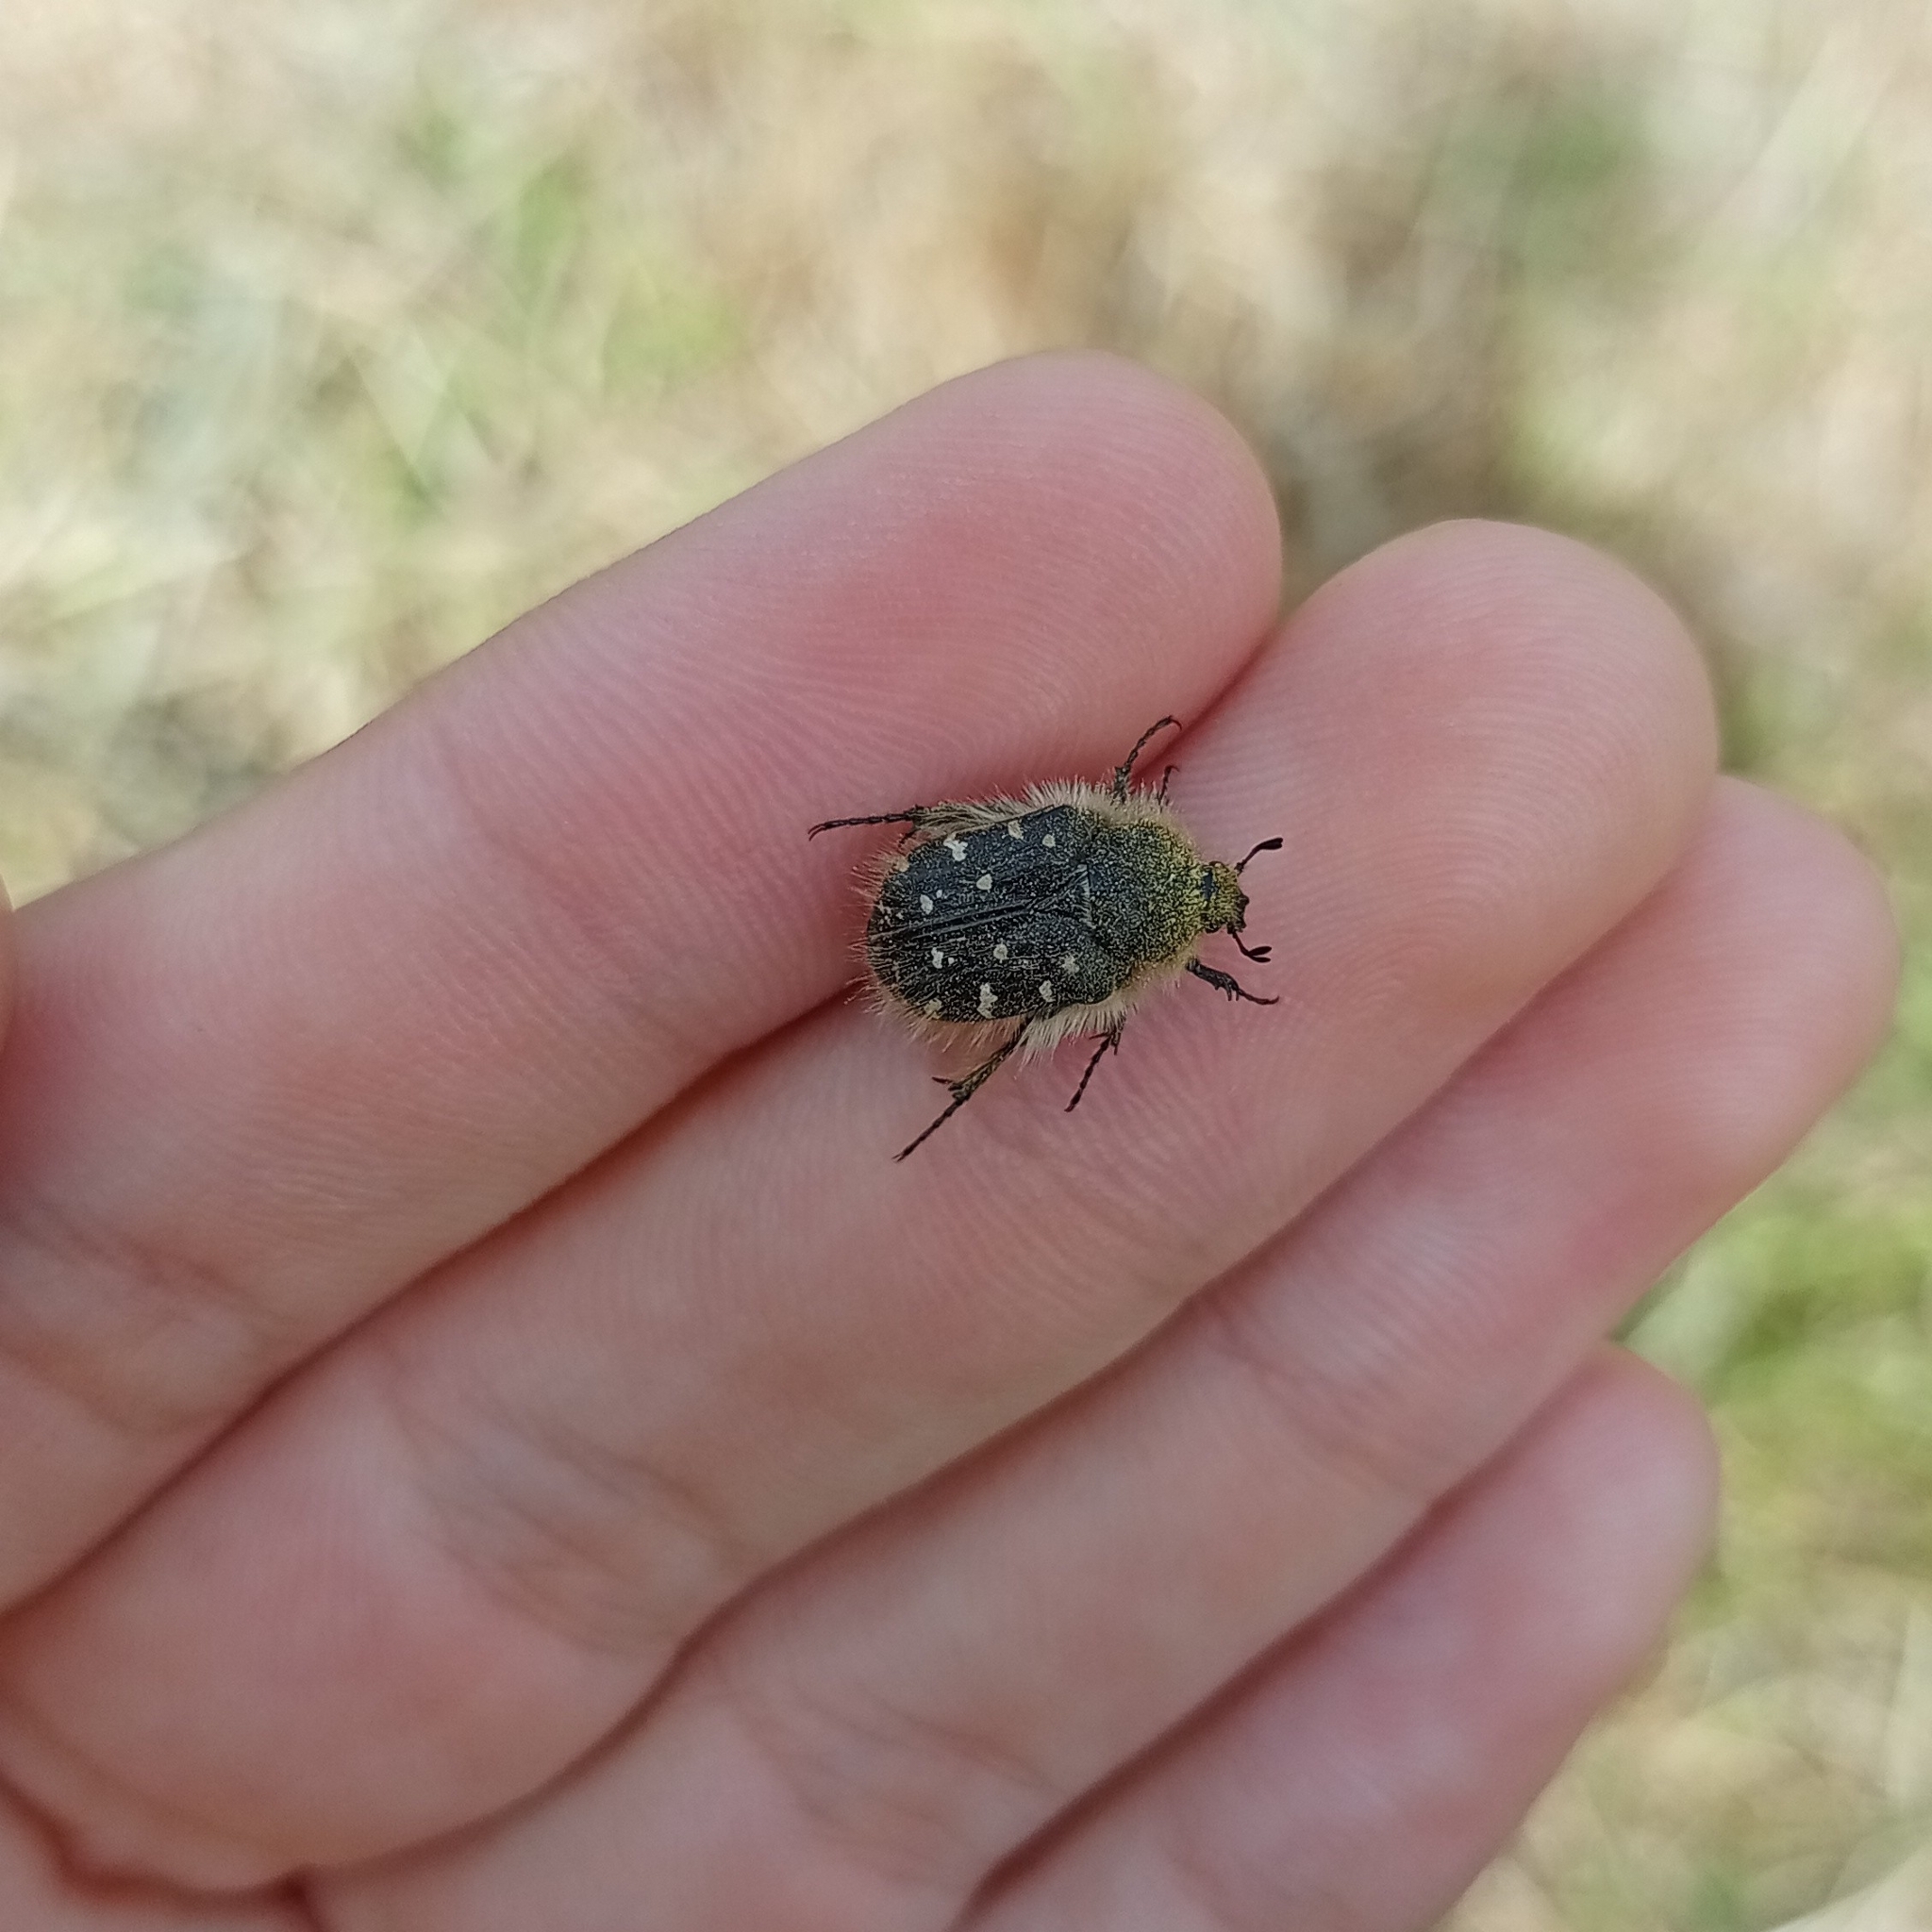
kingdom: Animalia
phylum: Arthropoda
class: Insecta
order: Coleoptera
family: Scarabaeidae
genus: Tropinota
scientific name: Tropinota hirta
